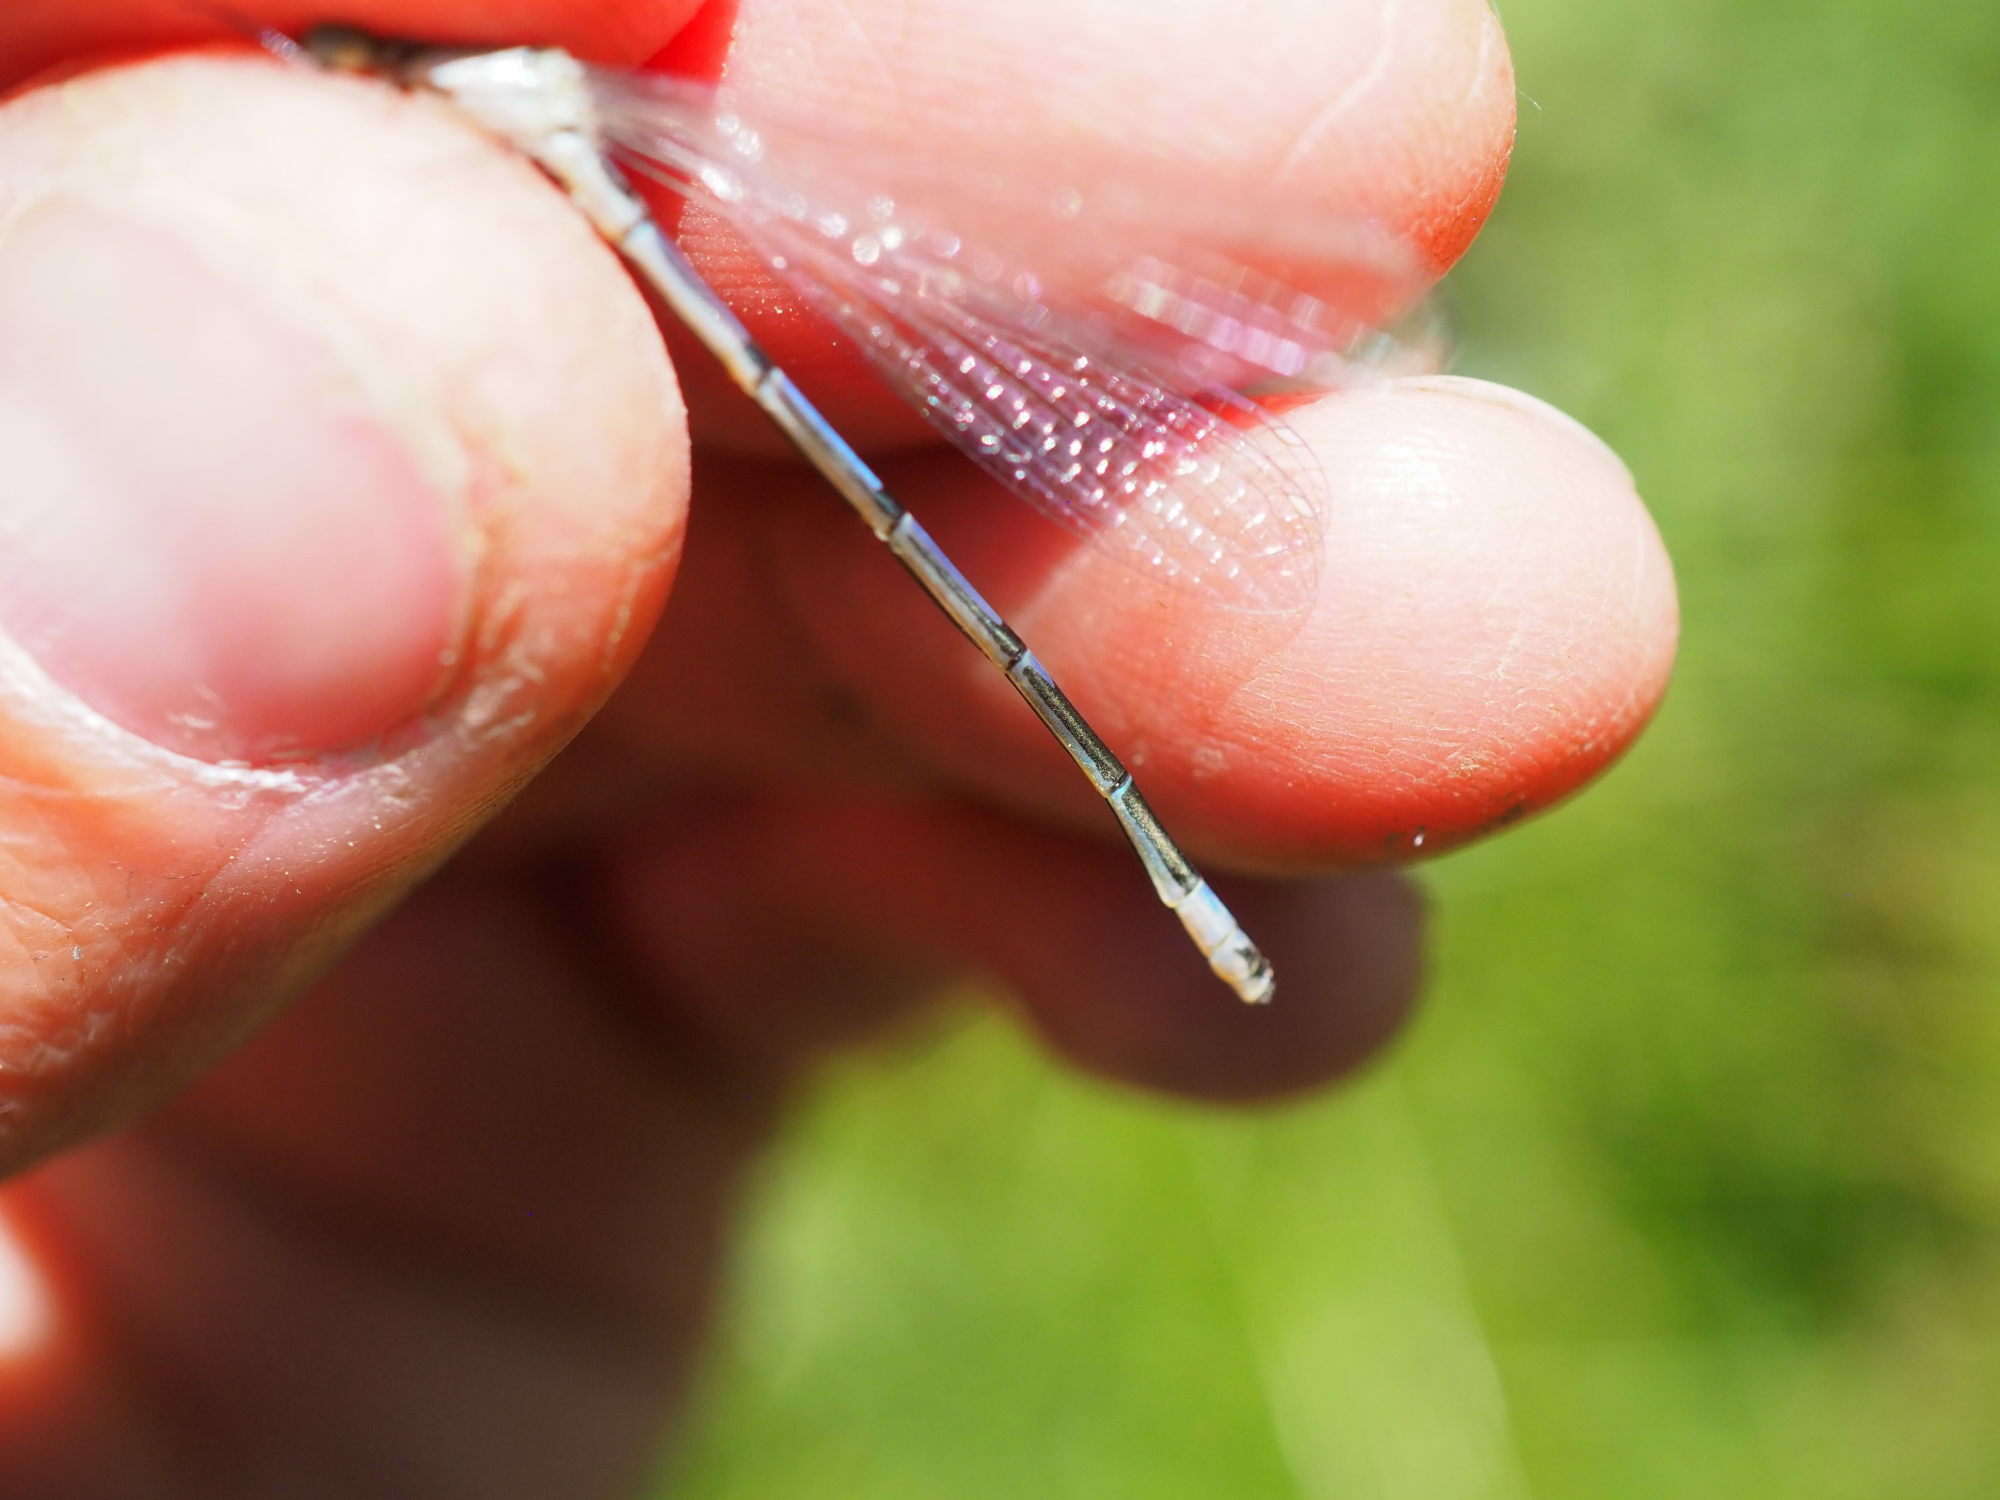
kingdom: Animalia
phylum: Arthropoda
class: Insecta
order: Odonata
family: Coenagrionidae
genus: Coenagrion
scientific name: Coenagrion puella
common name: Azure damselfly
